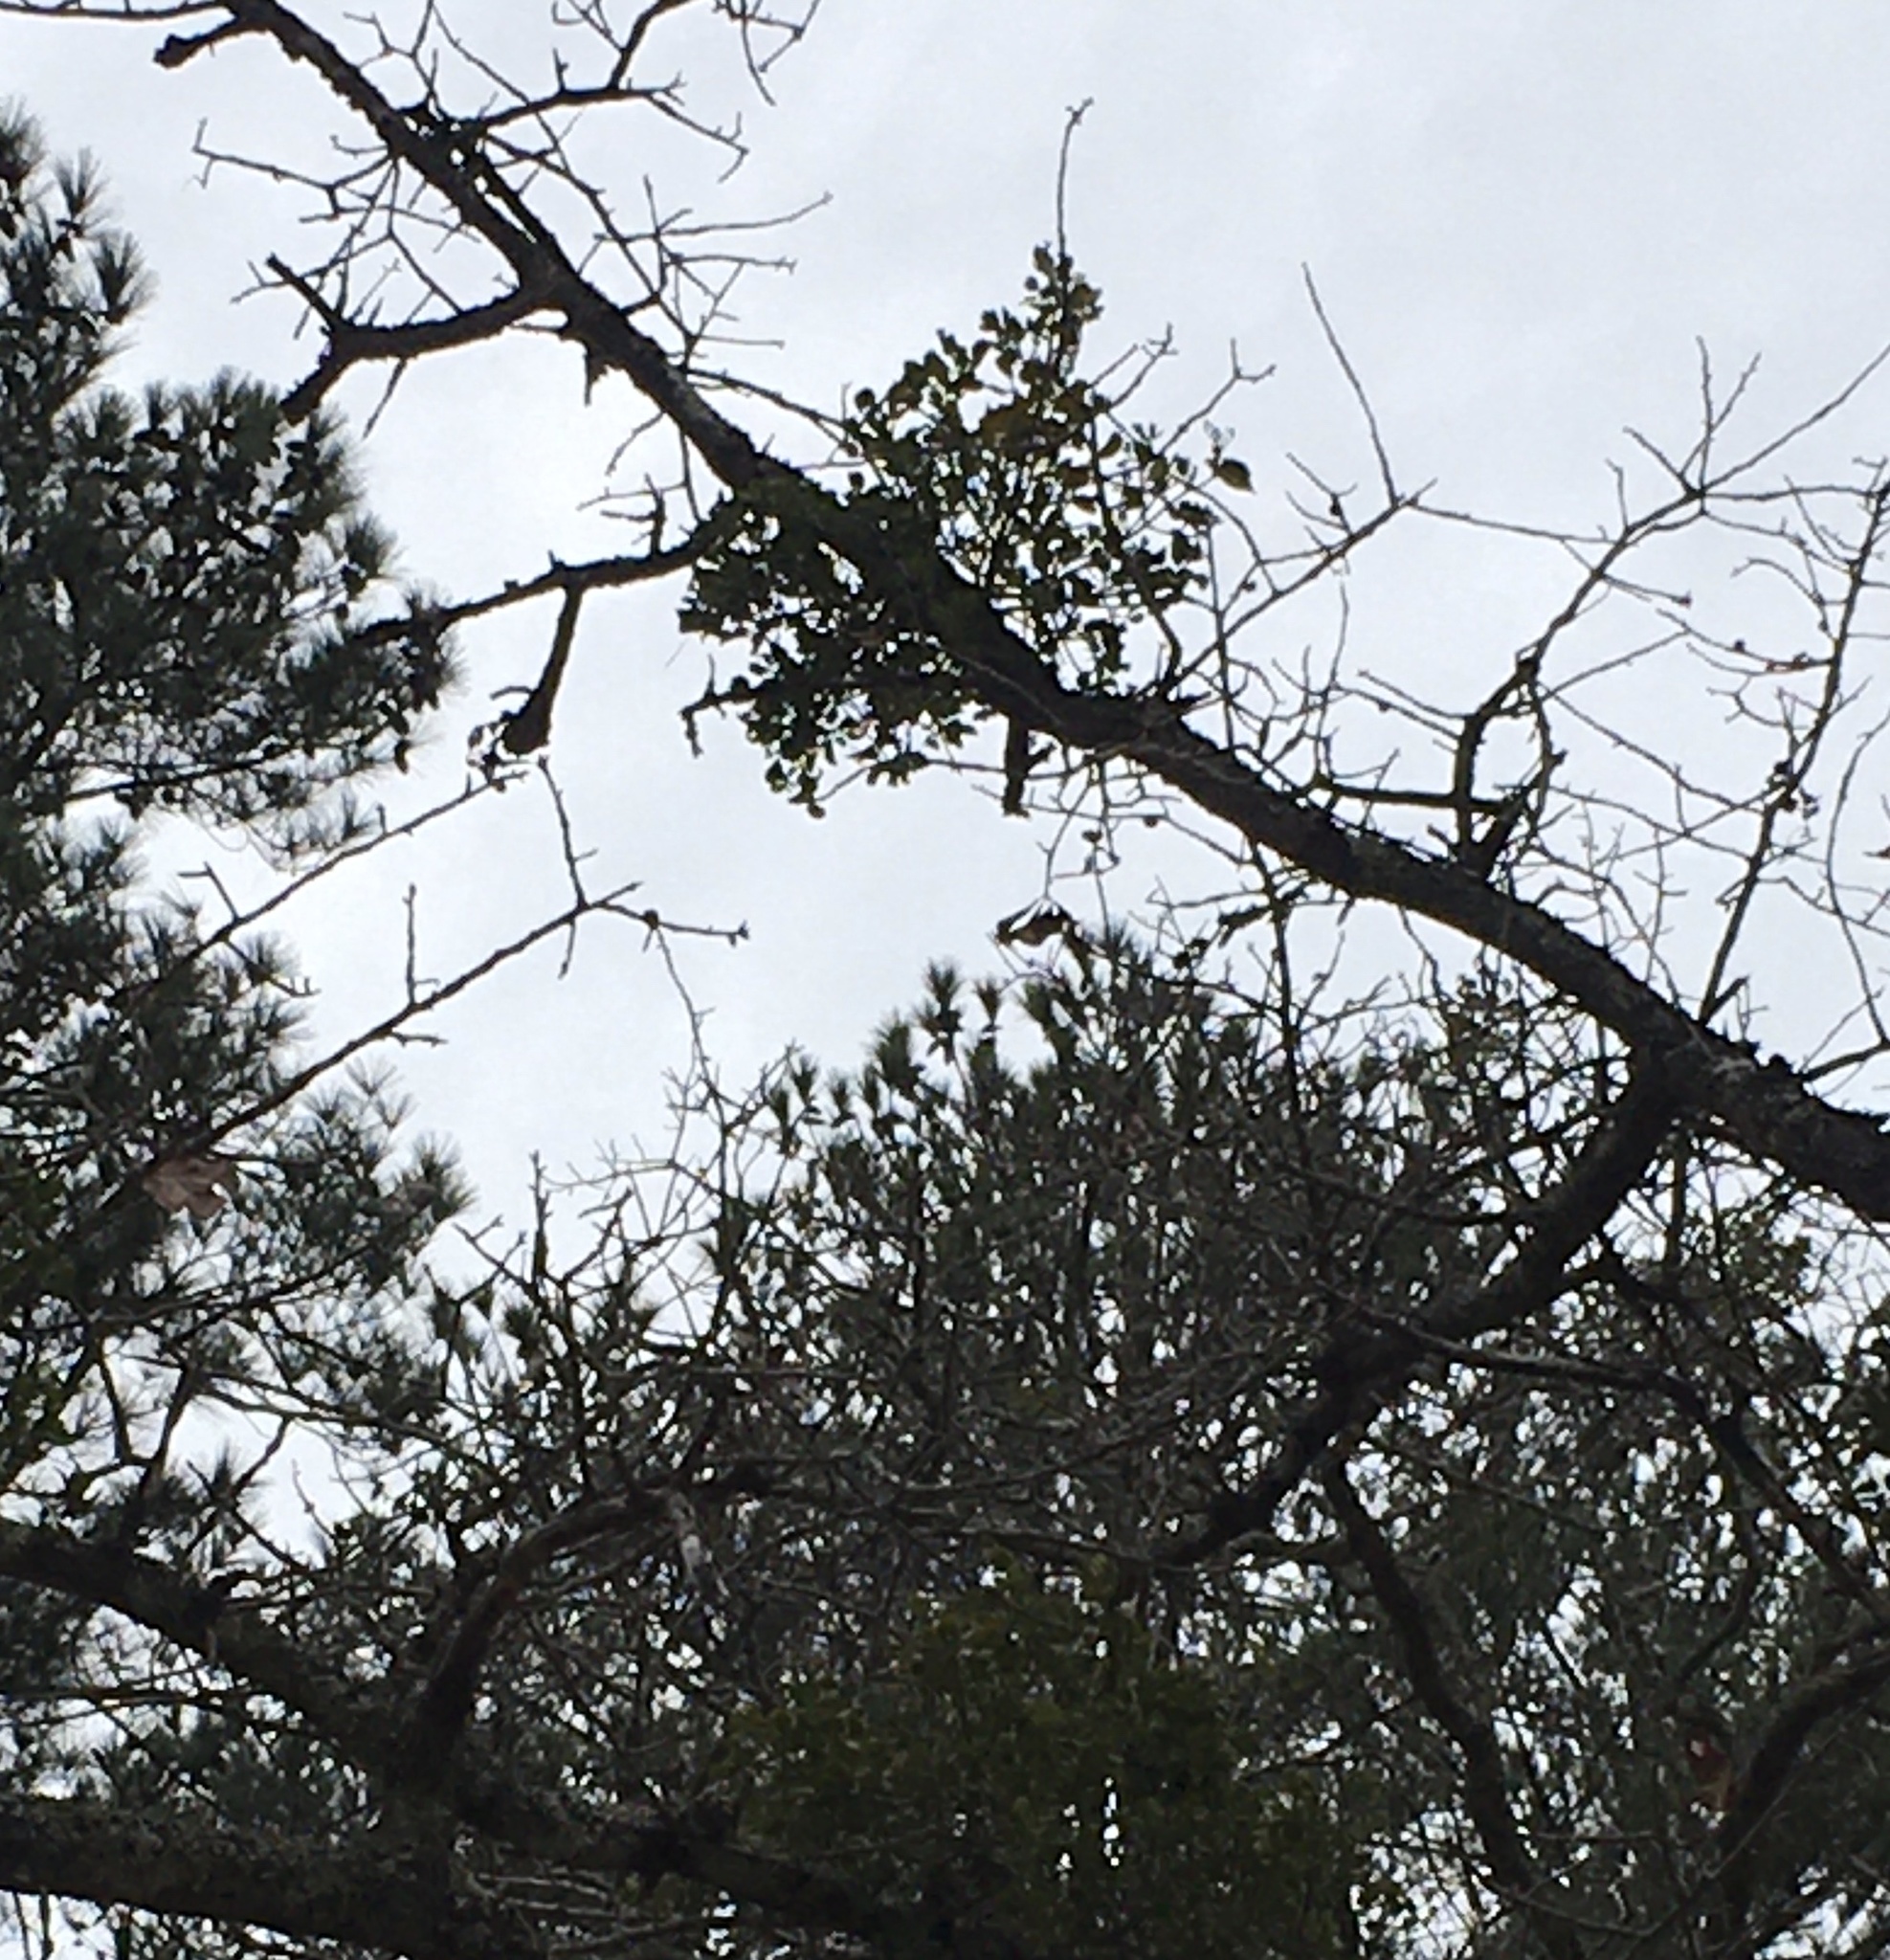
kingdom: Plantae
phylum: Tracheophyta
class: Magnoliopsida
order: Santalales
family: Viscaceae
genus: Phoradendron
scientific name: Phoradendron leucarpum
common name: Pacific mistletoe
